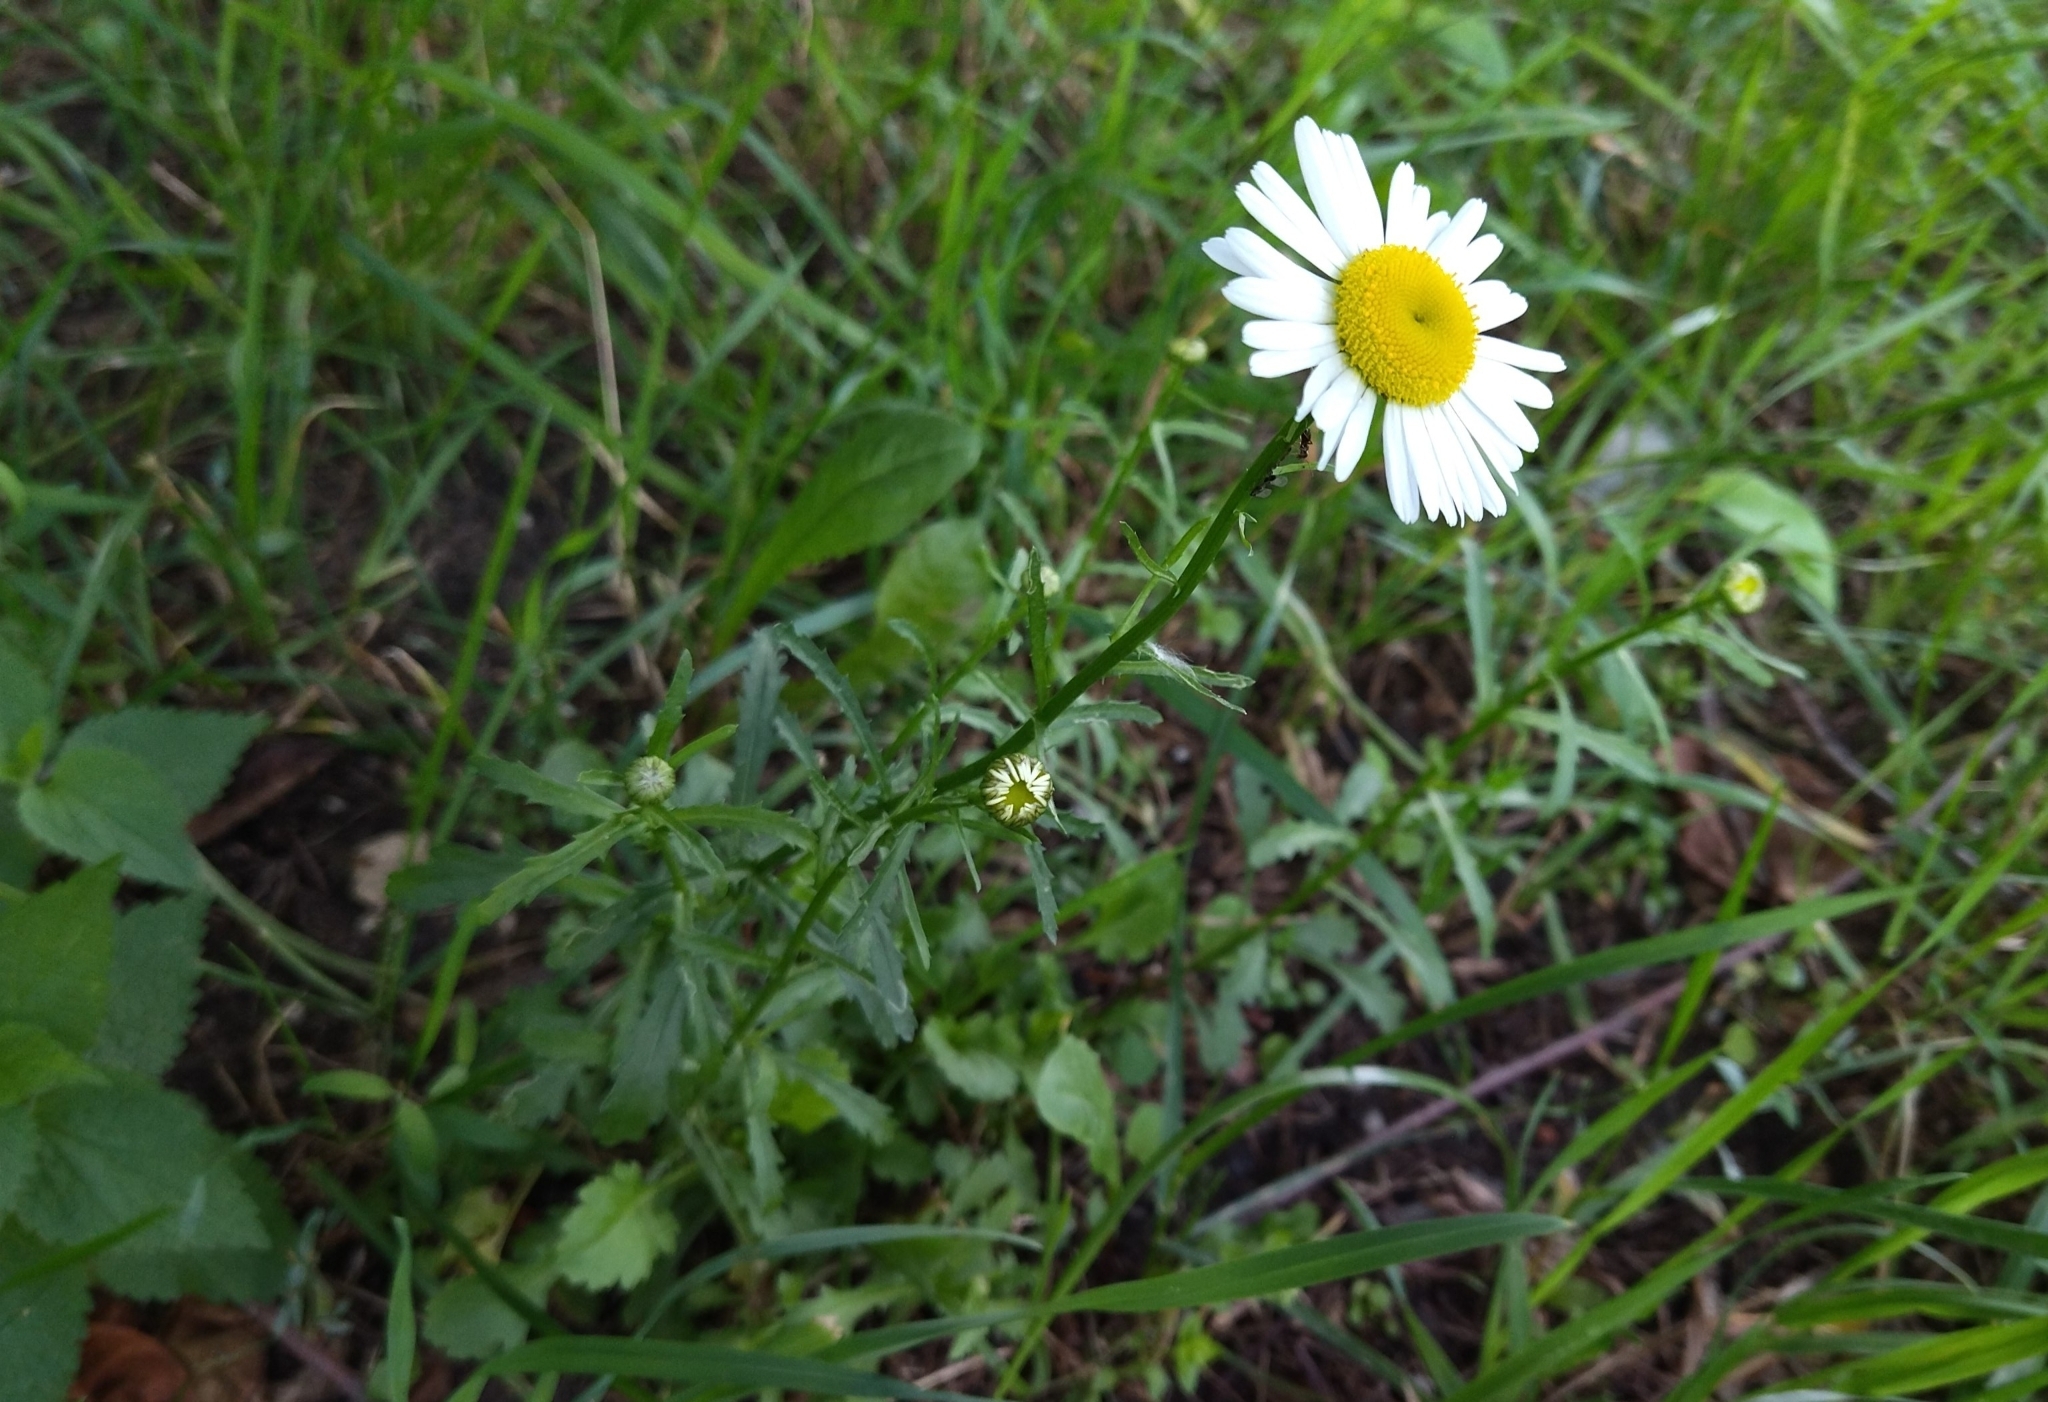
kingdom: Plantae
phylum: Tracheophyta
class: Magnoliopsida
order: Asterales
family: Asteraceae
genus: Leucanthemum
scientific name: Leucanthemum vulgare
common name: Oxeye daisy
